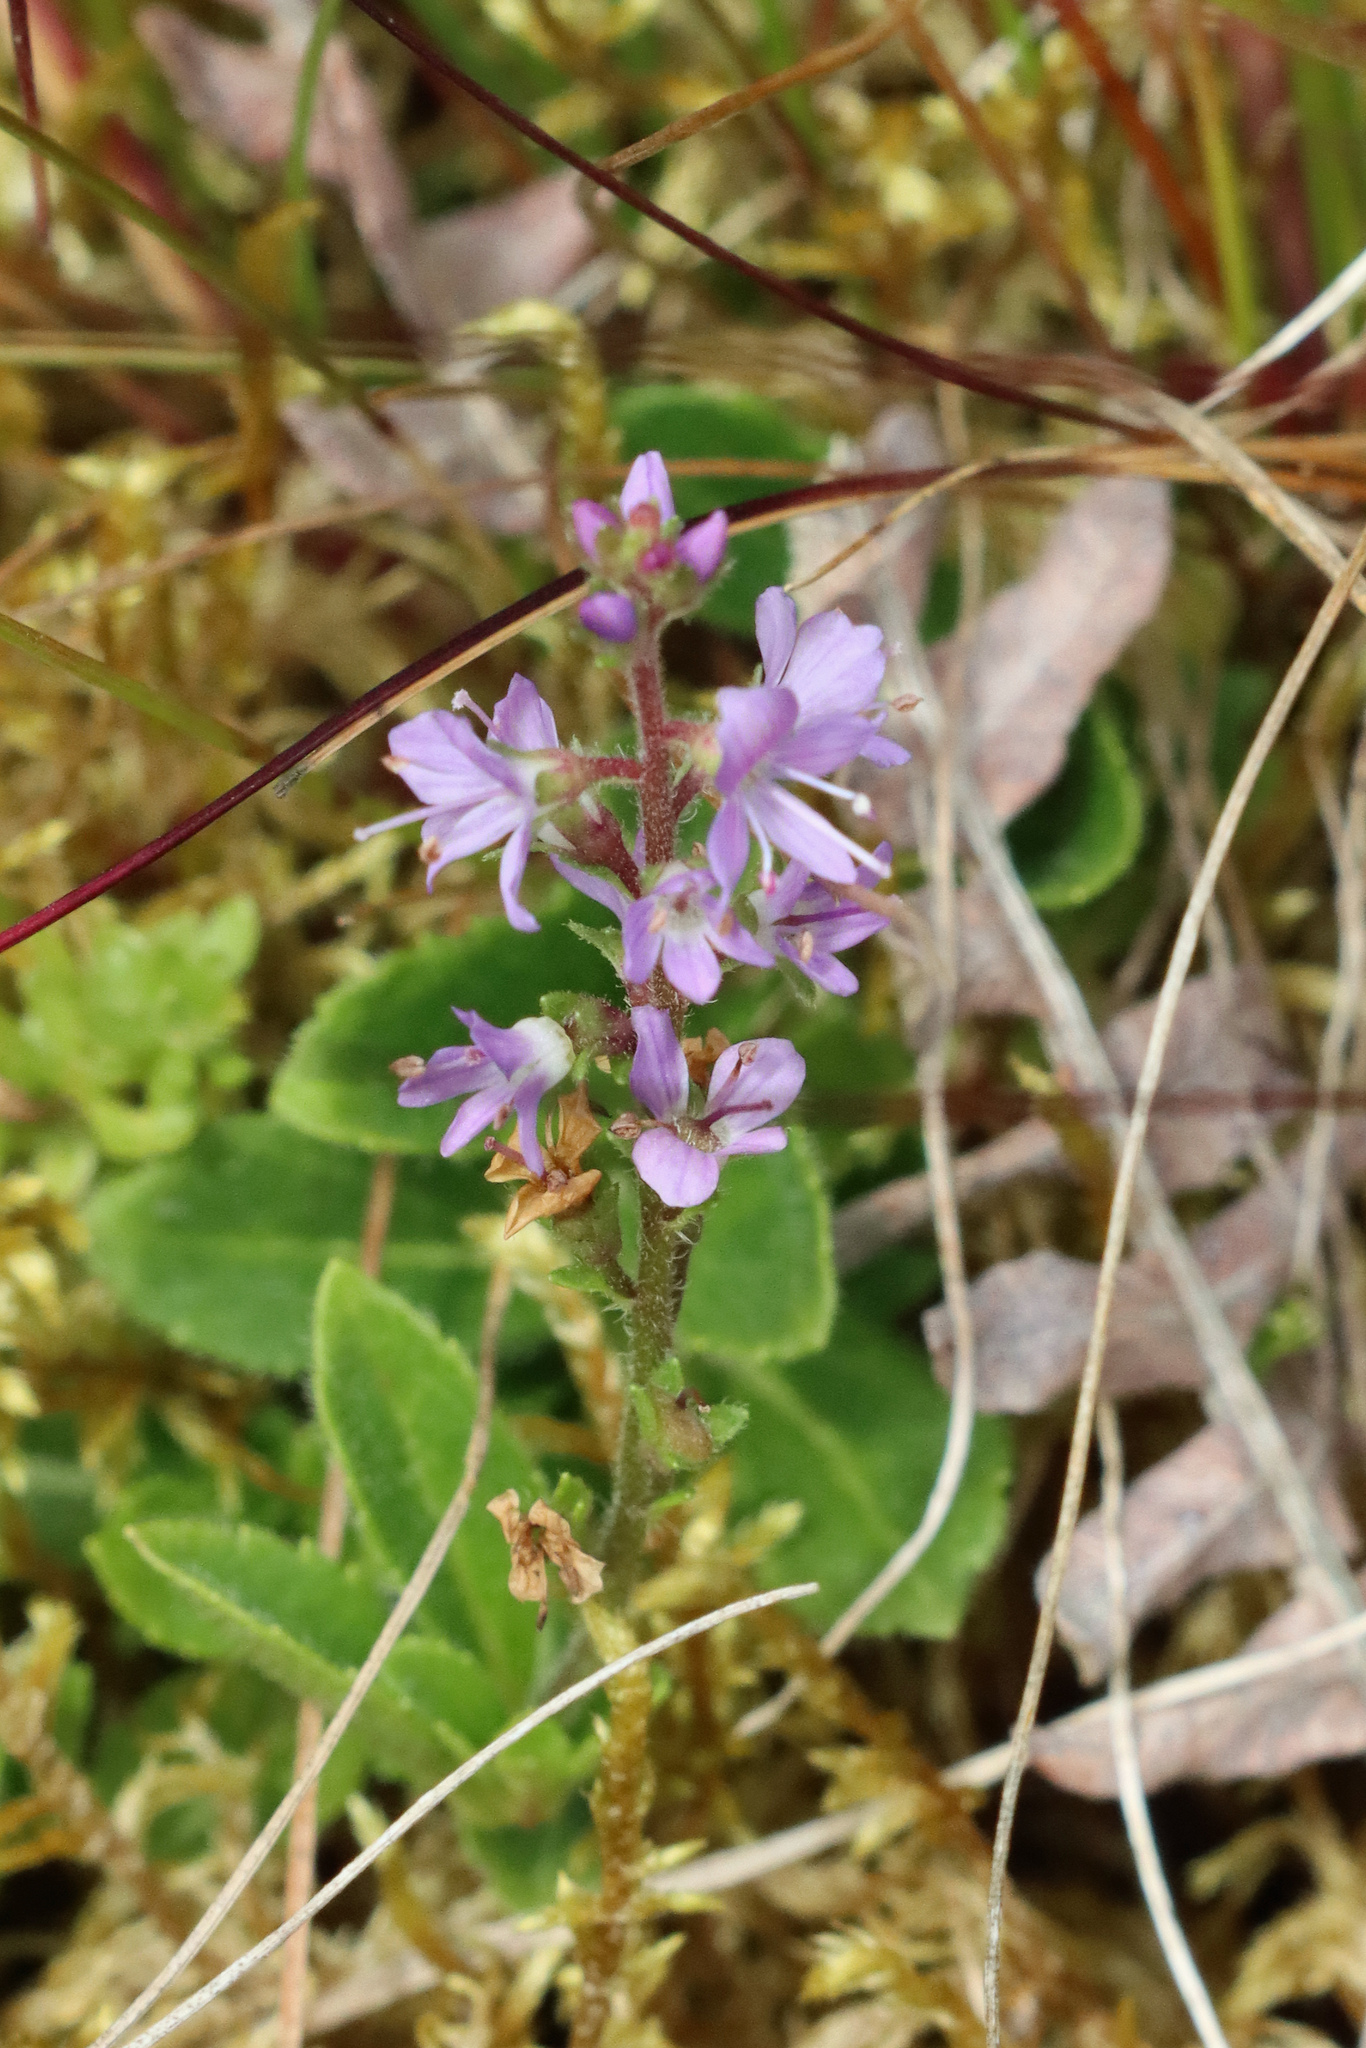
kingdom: Plantae
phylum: Tracheophyta
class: Magnoliopsida
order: Lamiales
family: Plantaginaceae
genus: Veronica
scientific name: Veronica officinalis
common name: Common speedwell
